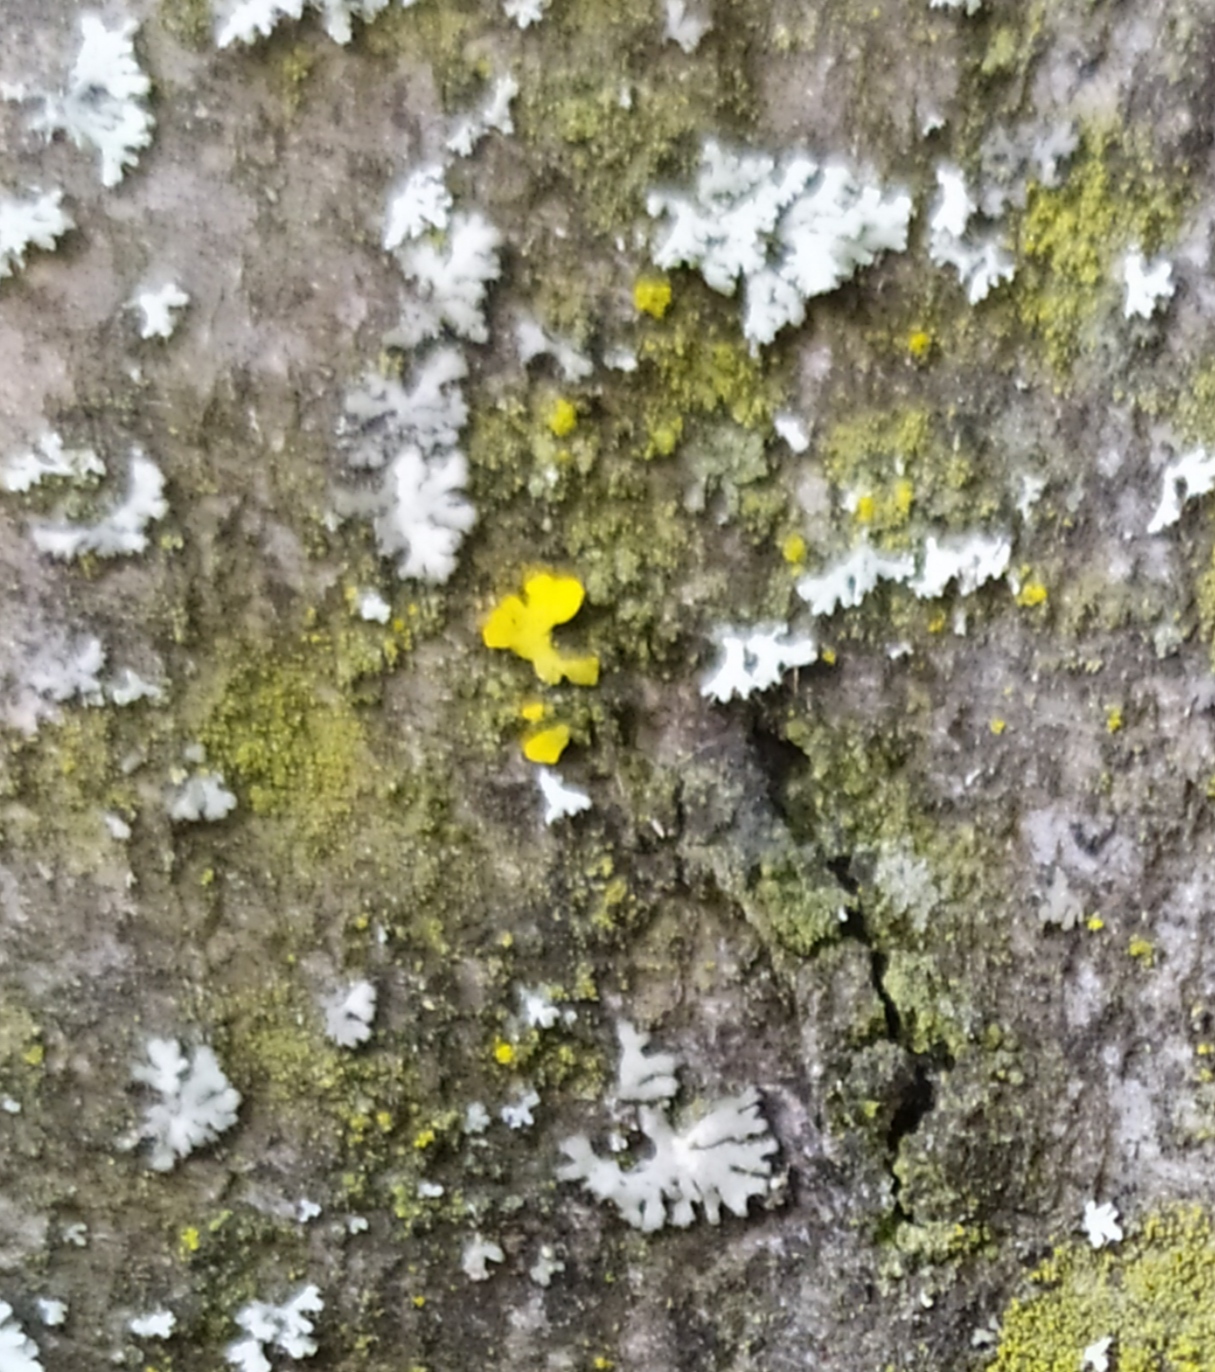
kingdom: Fungi
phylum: Ascomycota
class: Lecanoromycetes
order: Teloschistales
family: Teloschistaceae
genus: Xanthoria
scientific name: Xanthoria parietina
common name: Common orange lichen
